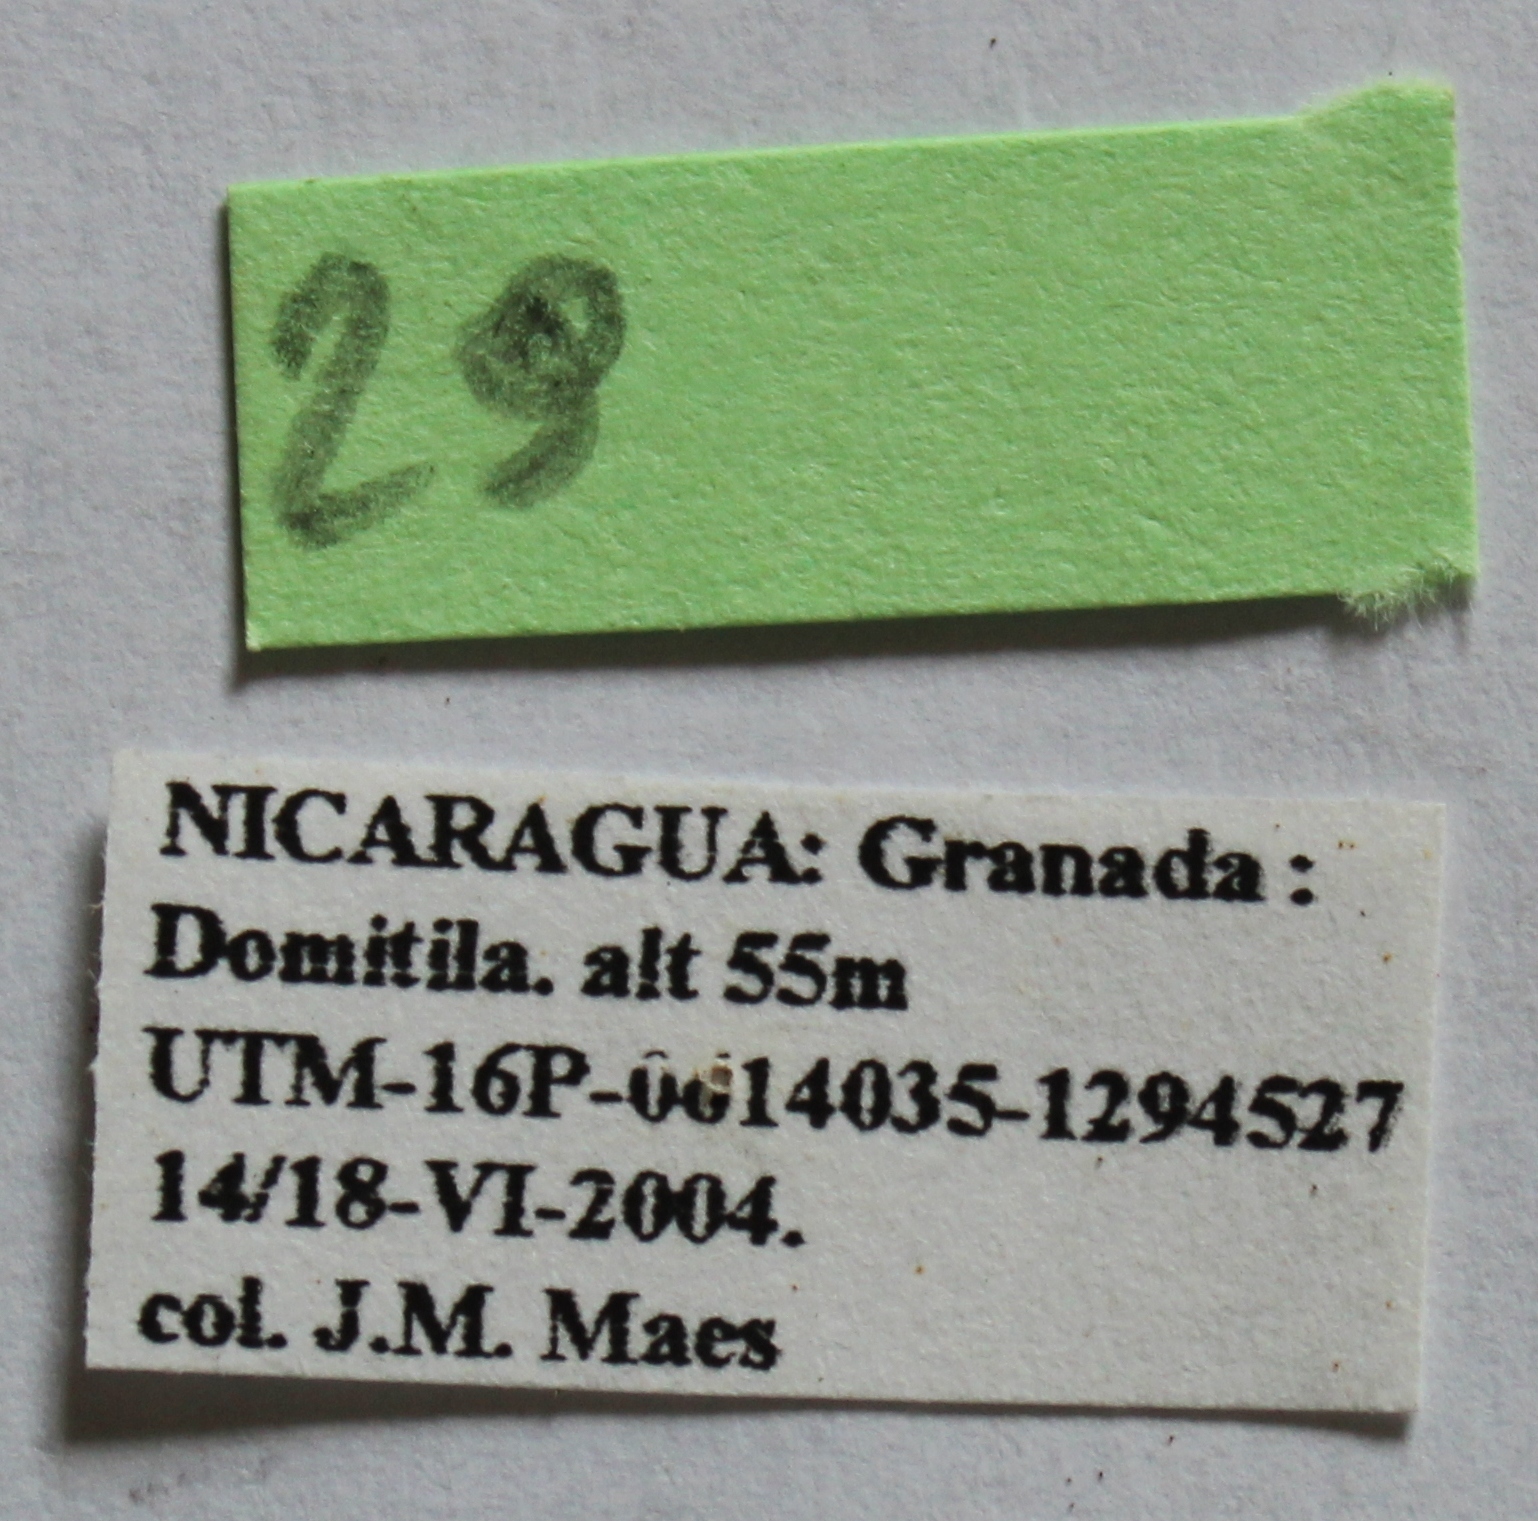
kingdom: Animalia
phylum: Arthropoda
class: Insecta
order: Coleoptera
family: Dermestidae
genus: Dermestes
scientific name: Dermestes carnivorus
